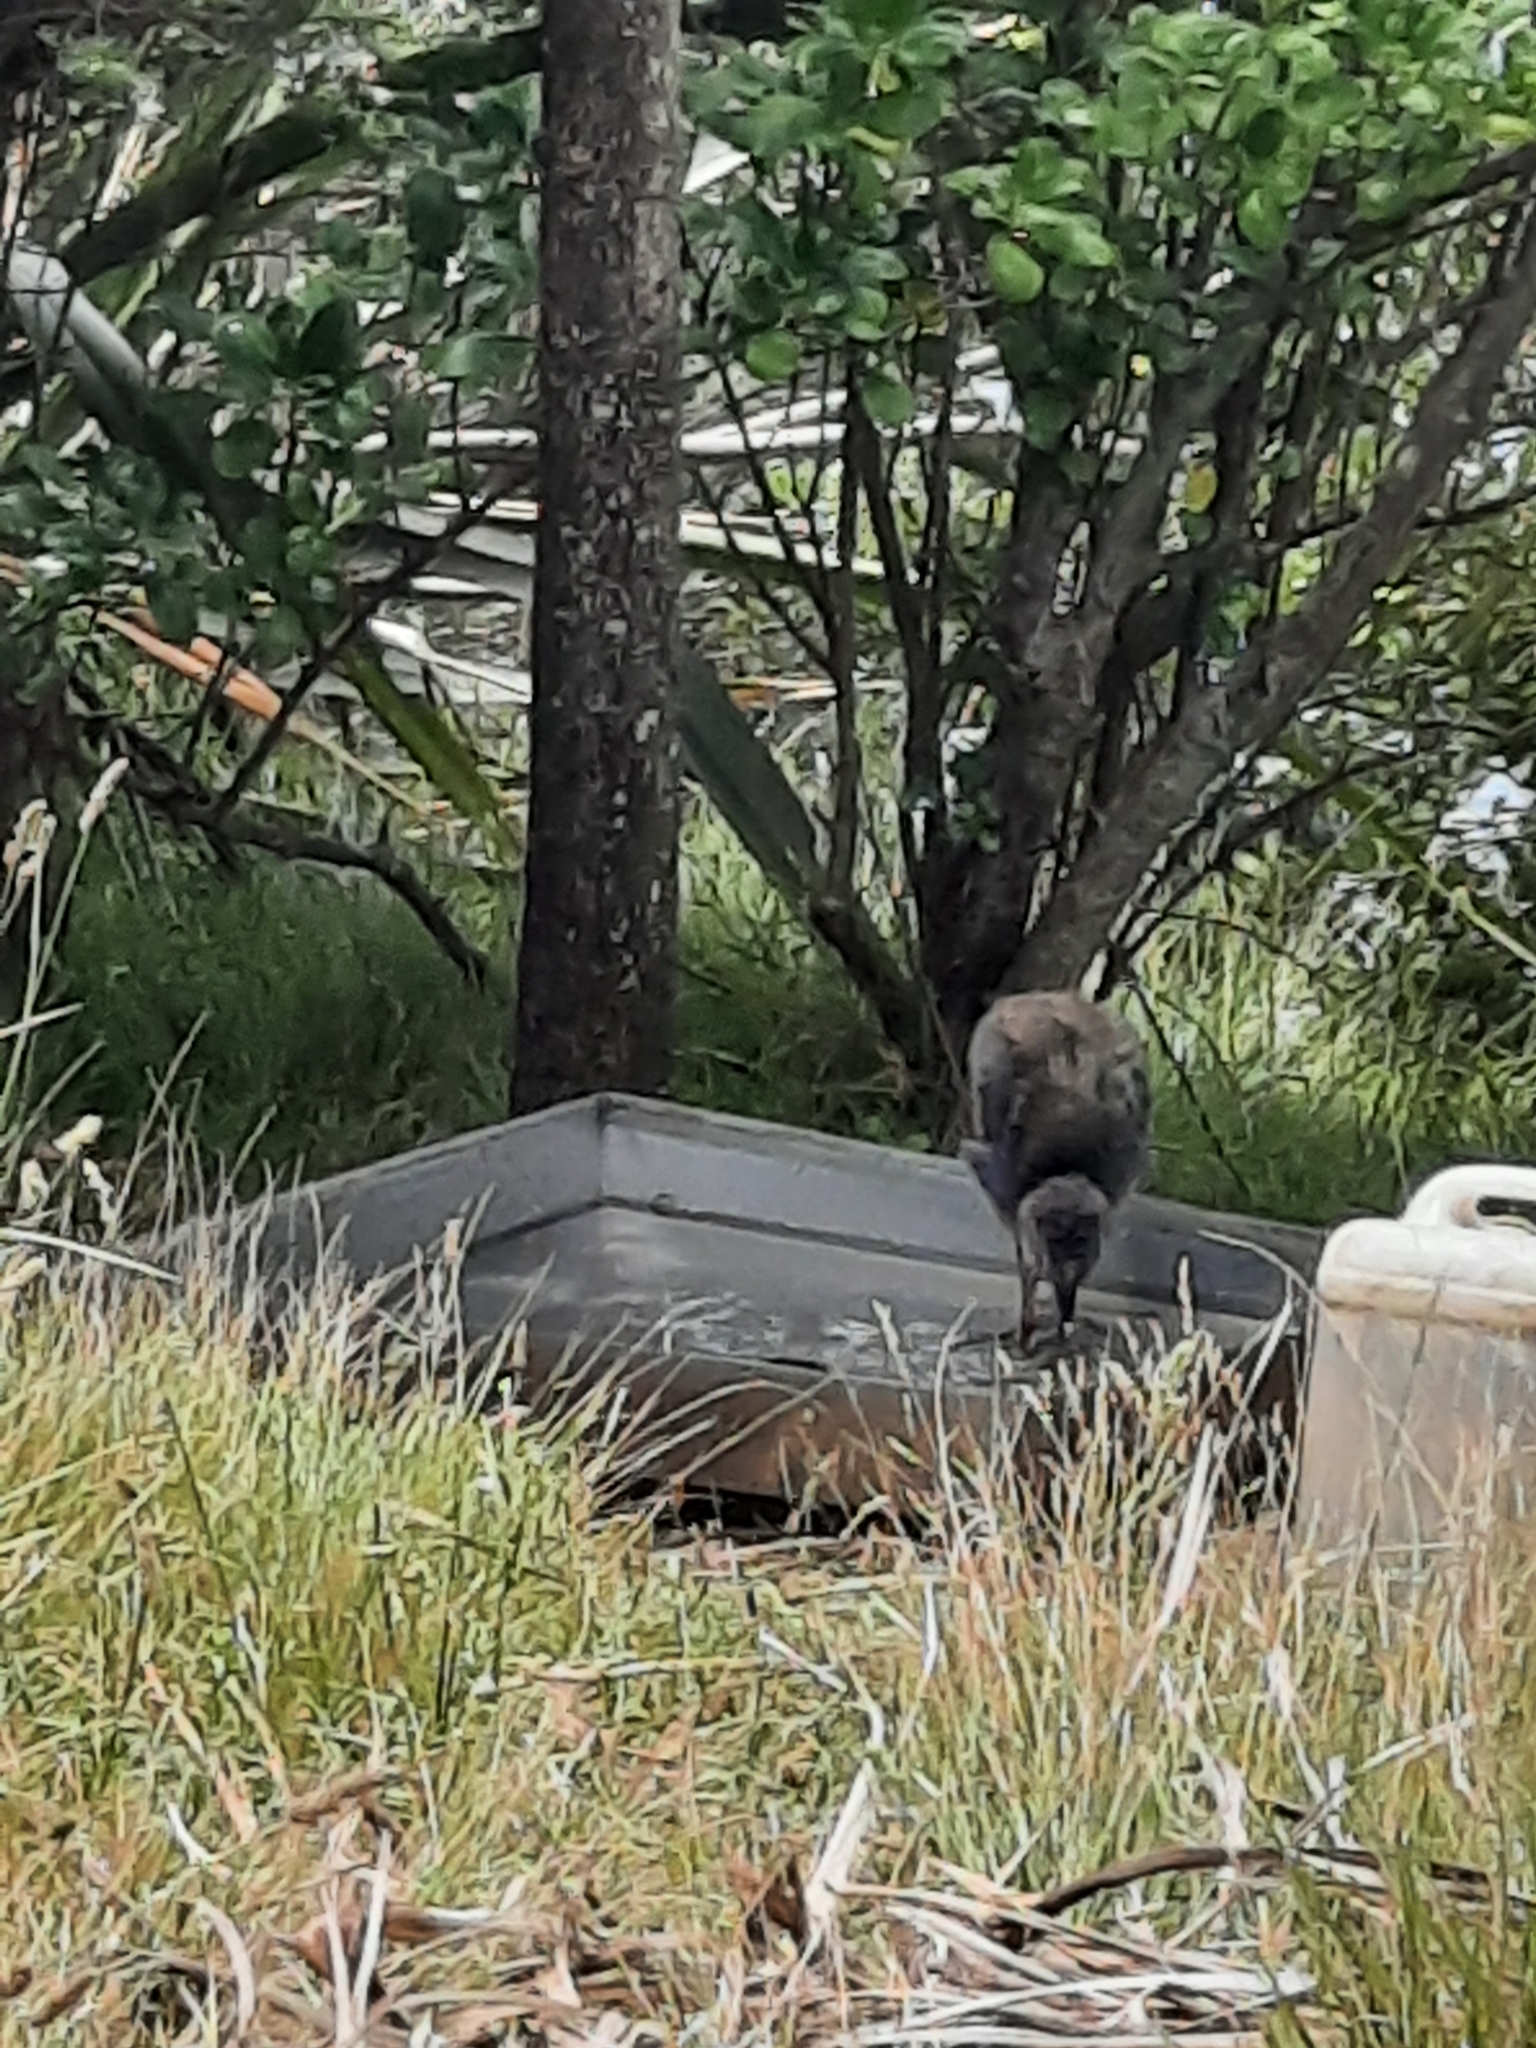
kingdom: Animalia
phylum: Chordata
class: Aves
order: Gruiformes
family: Rallidae
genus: Porphyrio
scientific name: Porphyrio hochstetteri
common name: South island takahe
